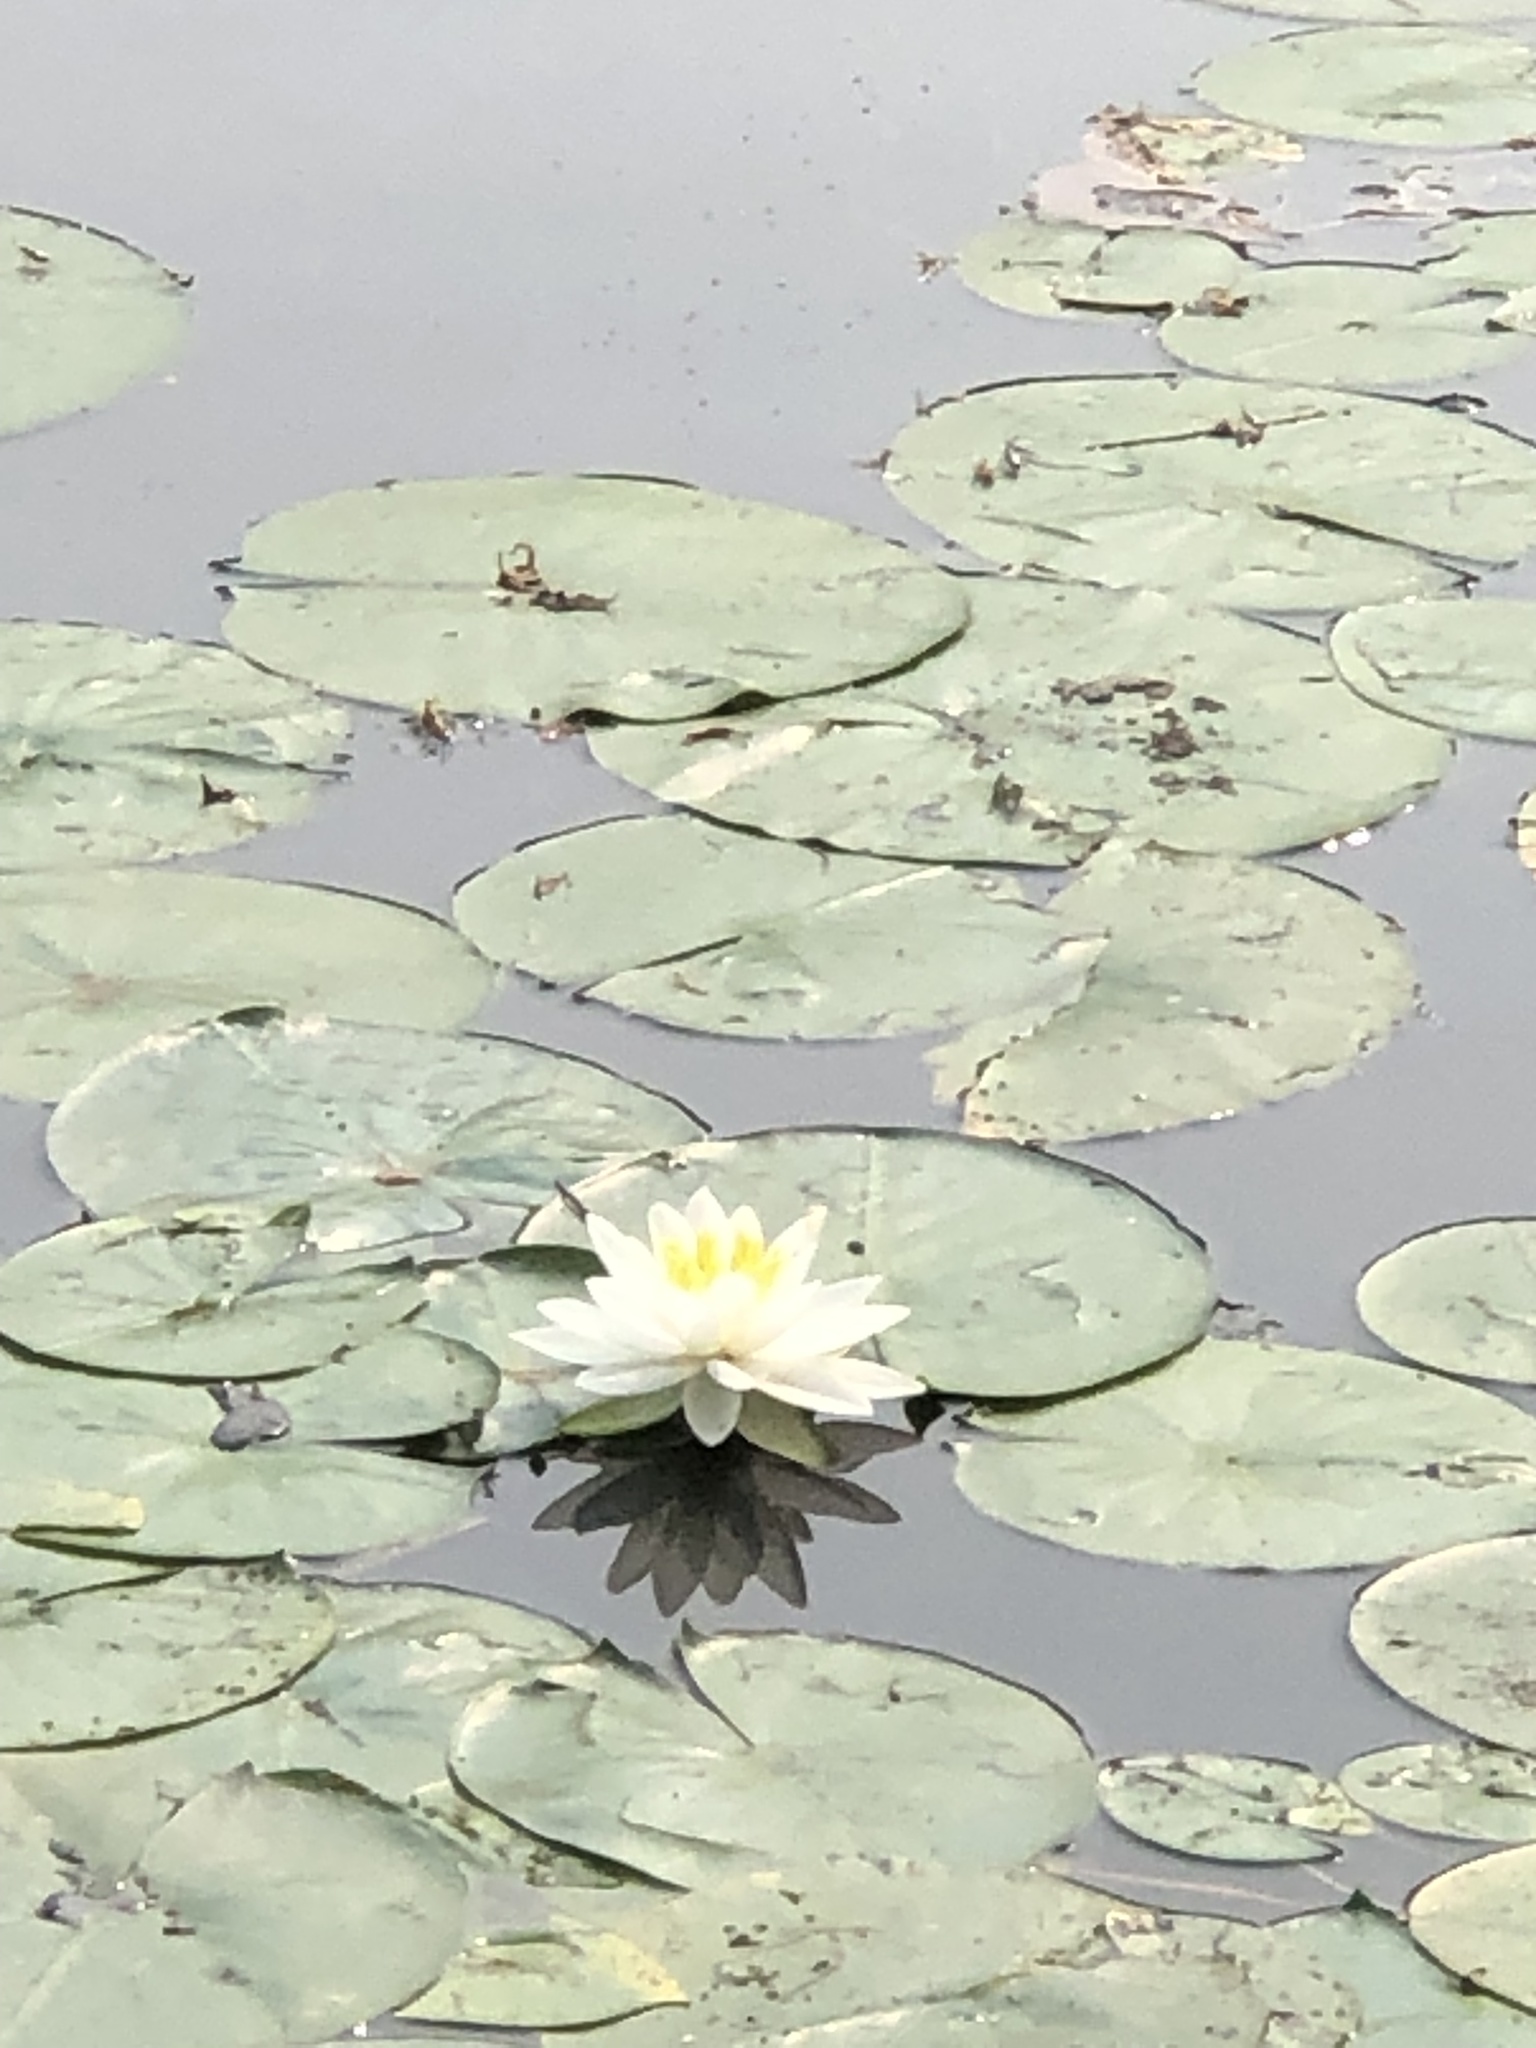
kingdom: Plantae
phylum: Tracheophyta
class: Magnoliopsida
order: Nymphaeales
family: Nymphaeaceae
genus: Nymphaea
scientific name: Nymphaea odorata
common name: Fragrant water-lily
